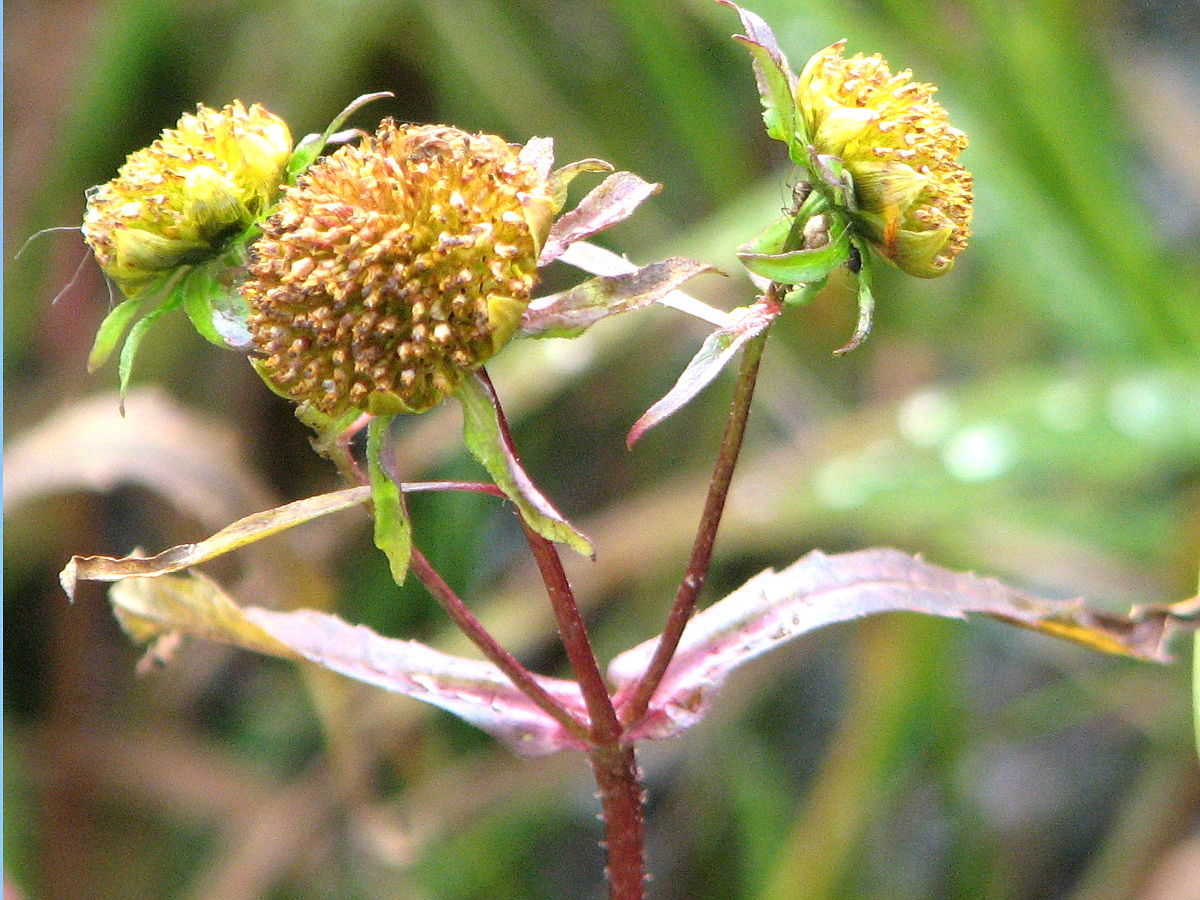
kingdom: Plantae
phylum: Tracheophyta
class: Magnoliopsida
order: Asterales
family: Asteraceae
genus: Bidens
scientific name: Bidens cernua
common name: Nodding bur-marigold
